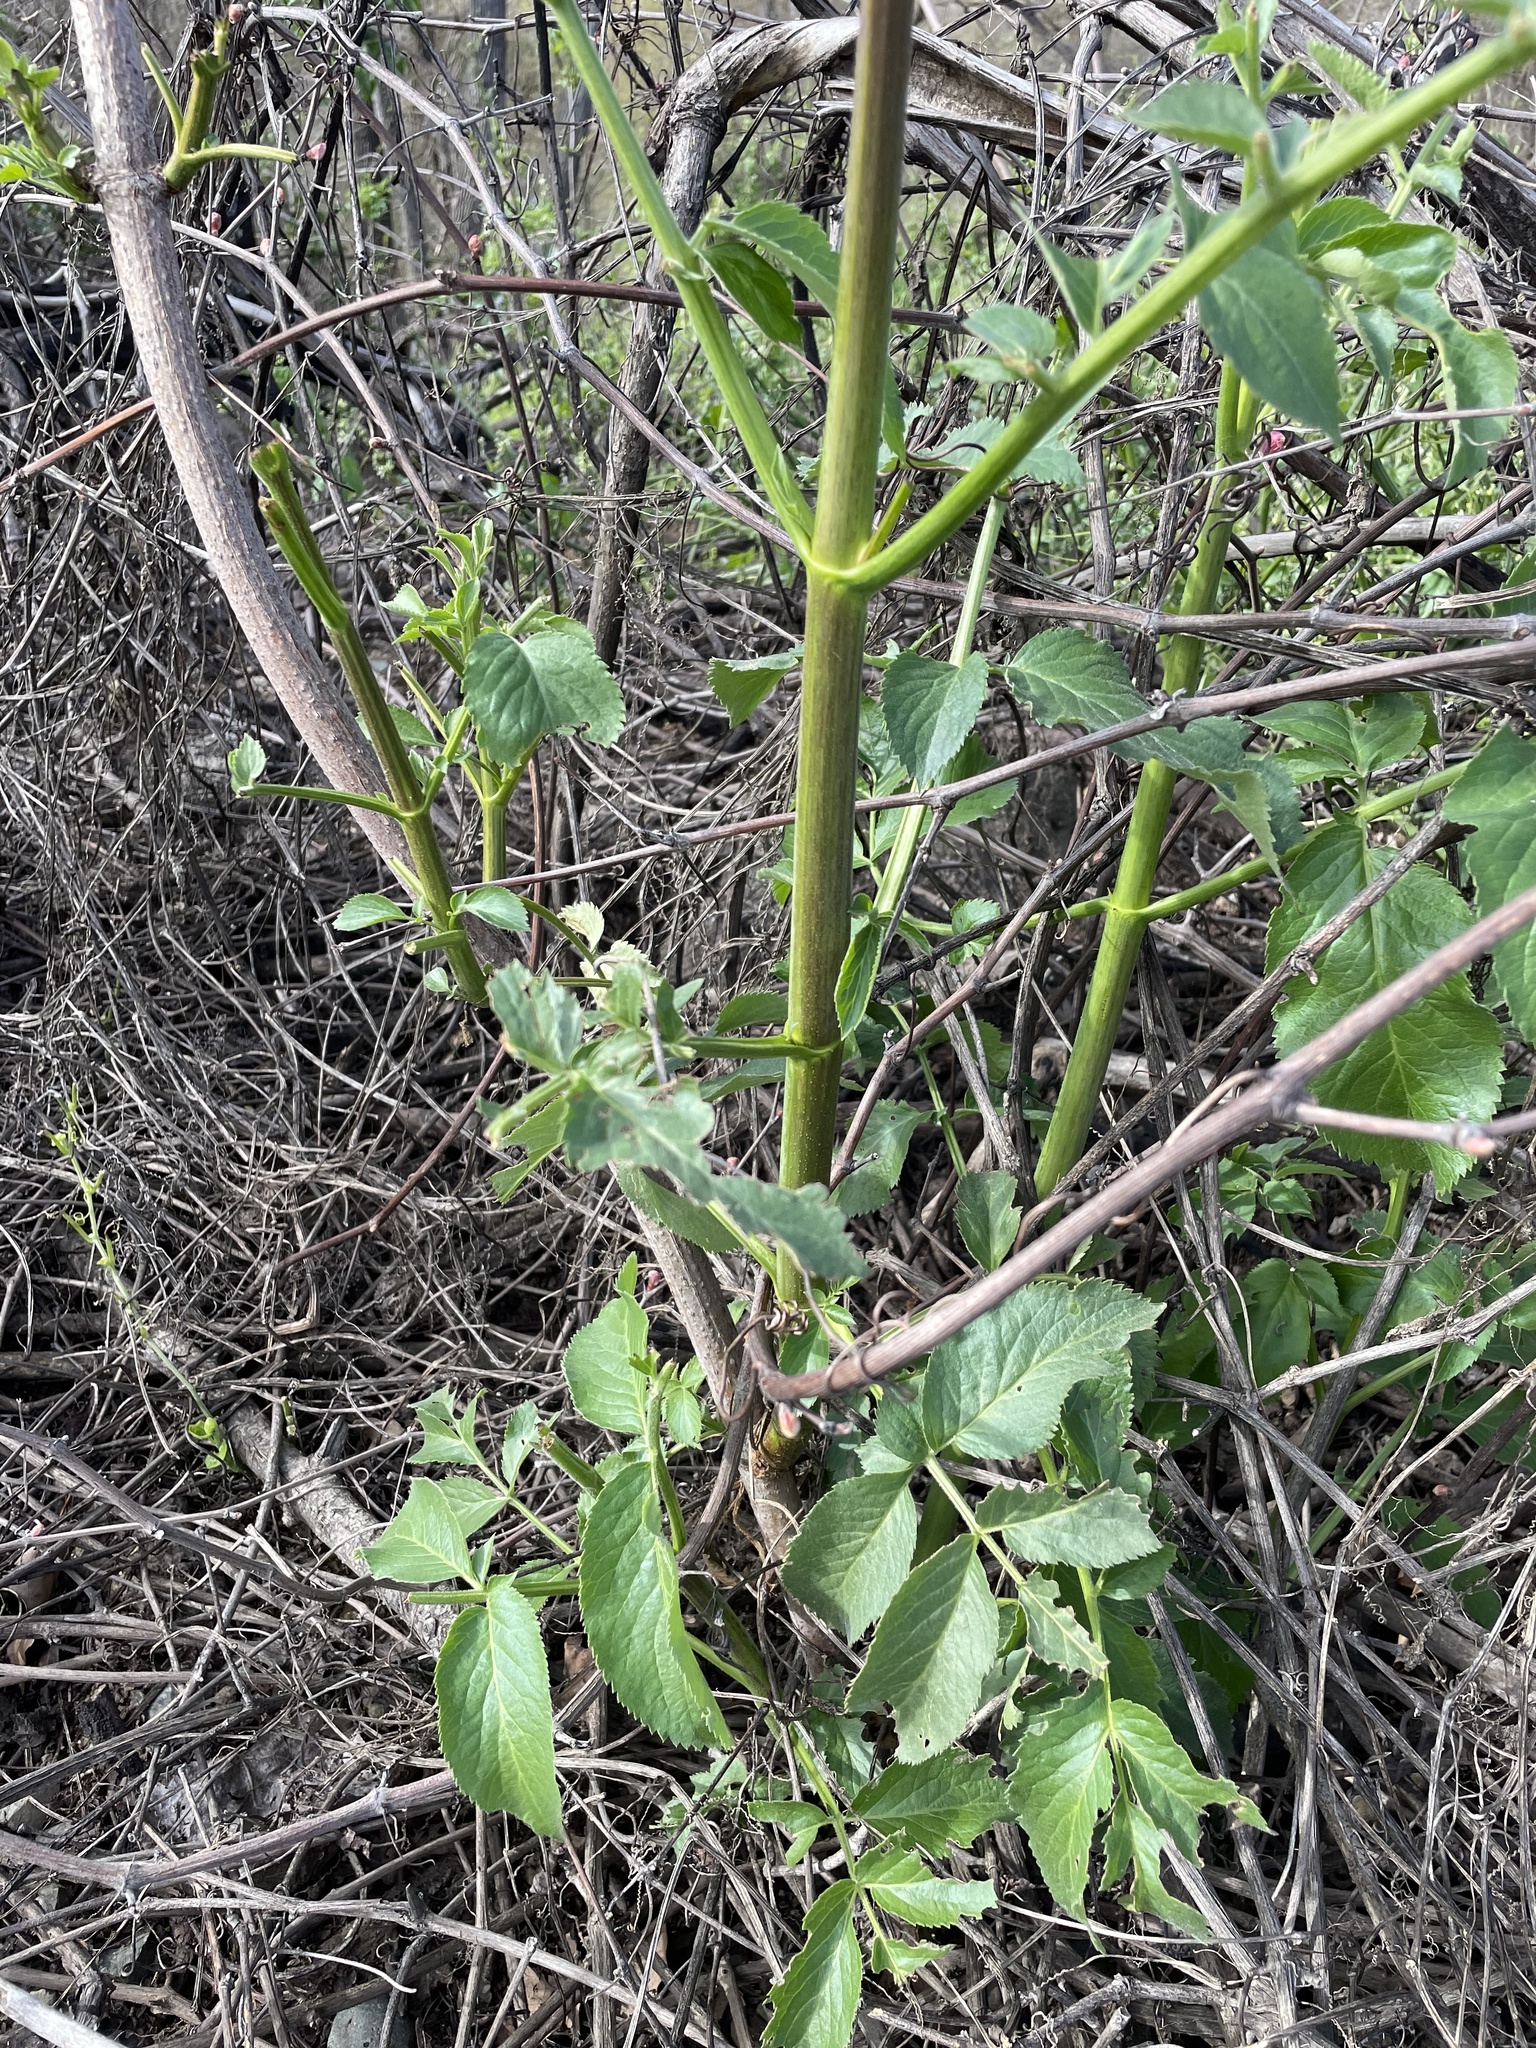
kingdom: Plantae
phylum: Tracheophyta
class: Magnoliopsida
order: Dipsacales
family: Viburnaceae
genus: Sambucus
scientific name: Sambucus cerulea
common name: Blue elder
